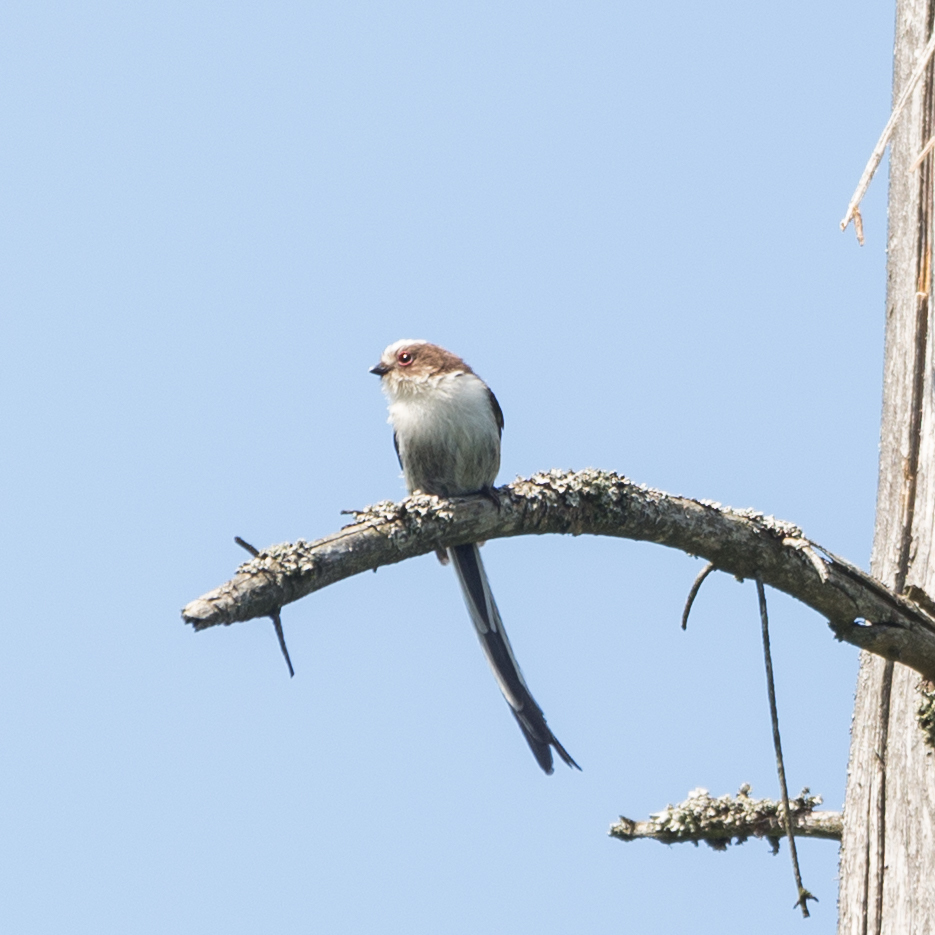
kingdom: Animalia
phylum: Chordata
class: Aves
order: Passeriformes
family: Aegithalidae
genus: Aegithalos
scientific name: Aegithalos caudatus
